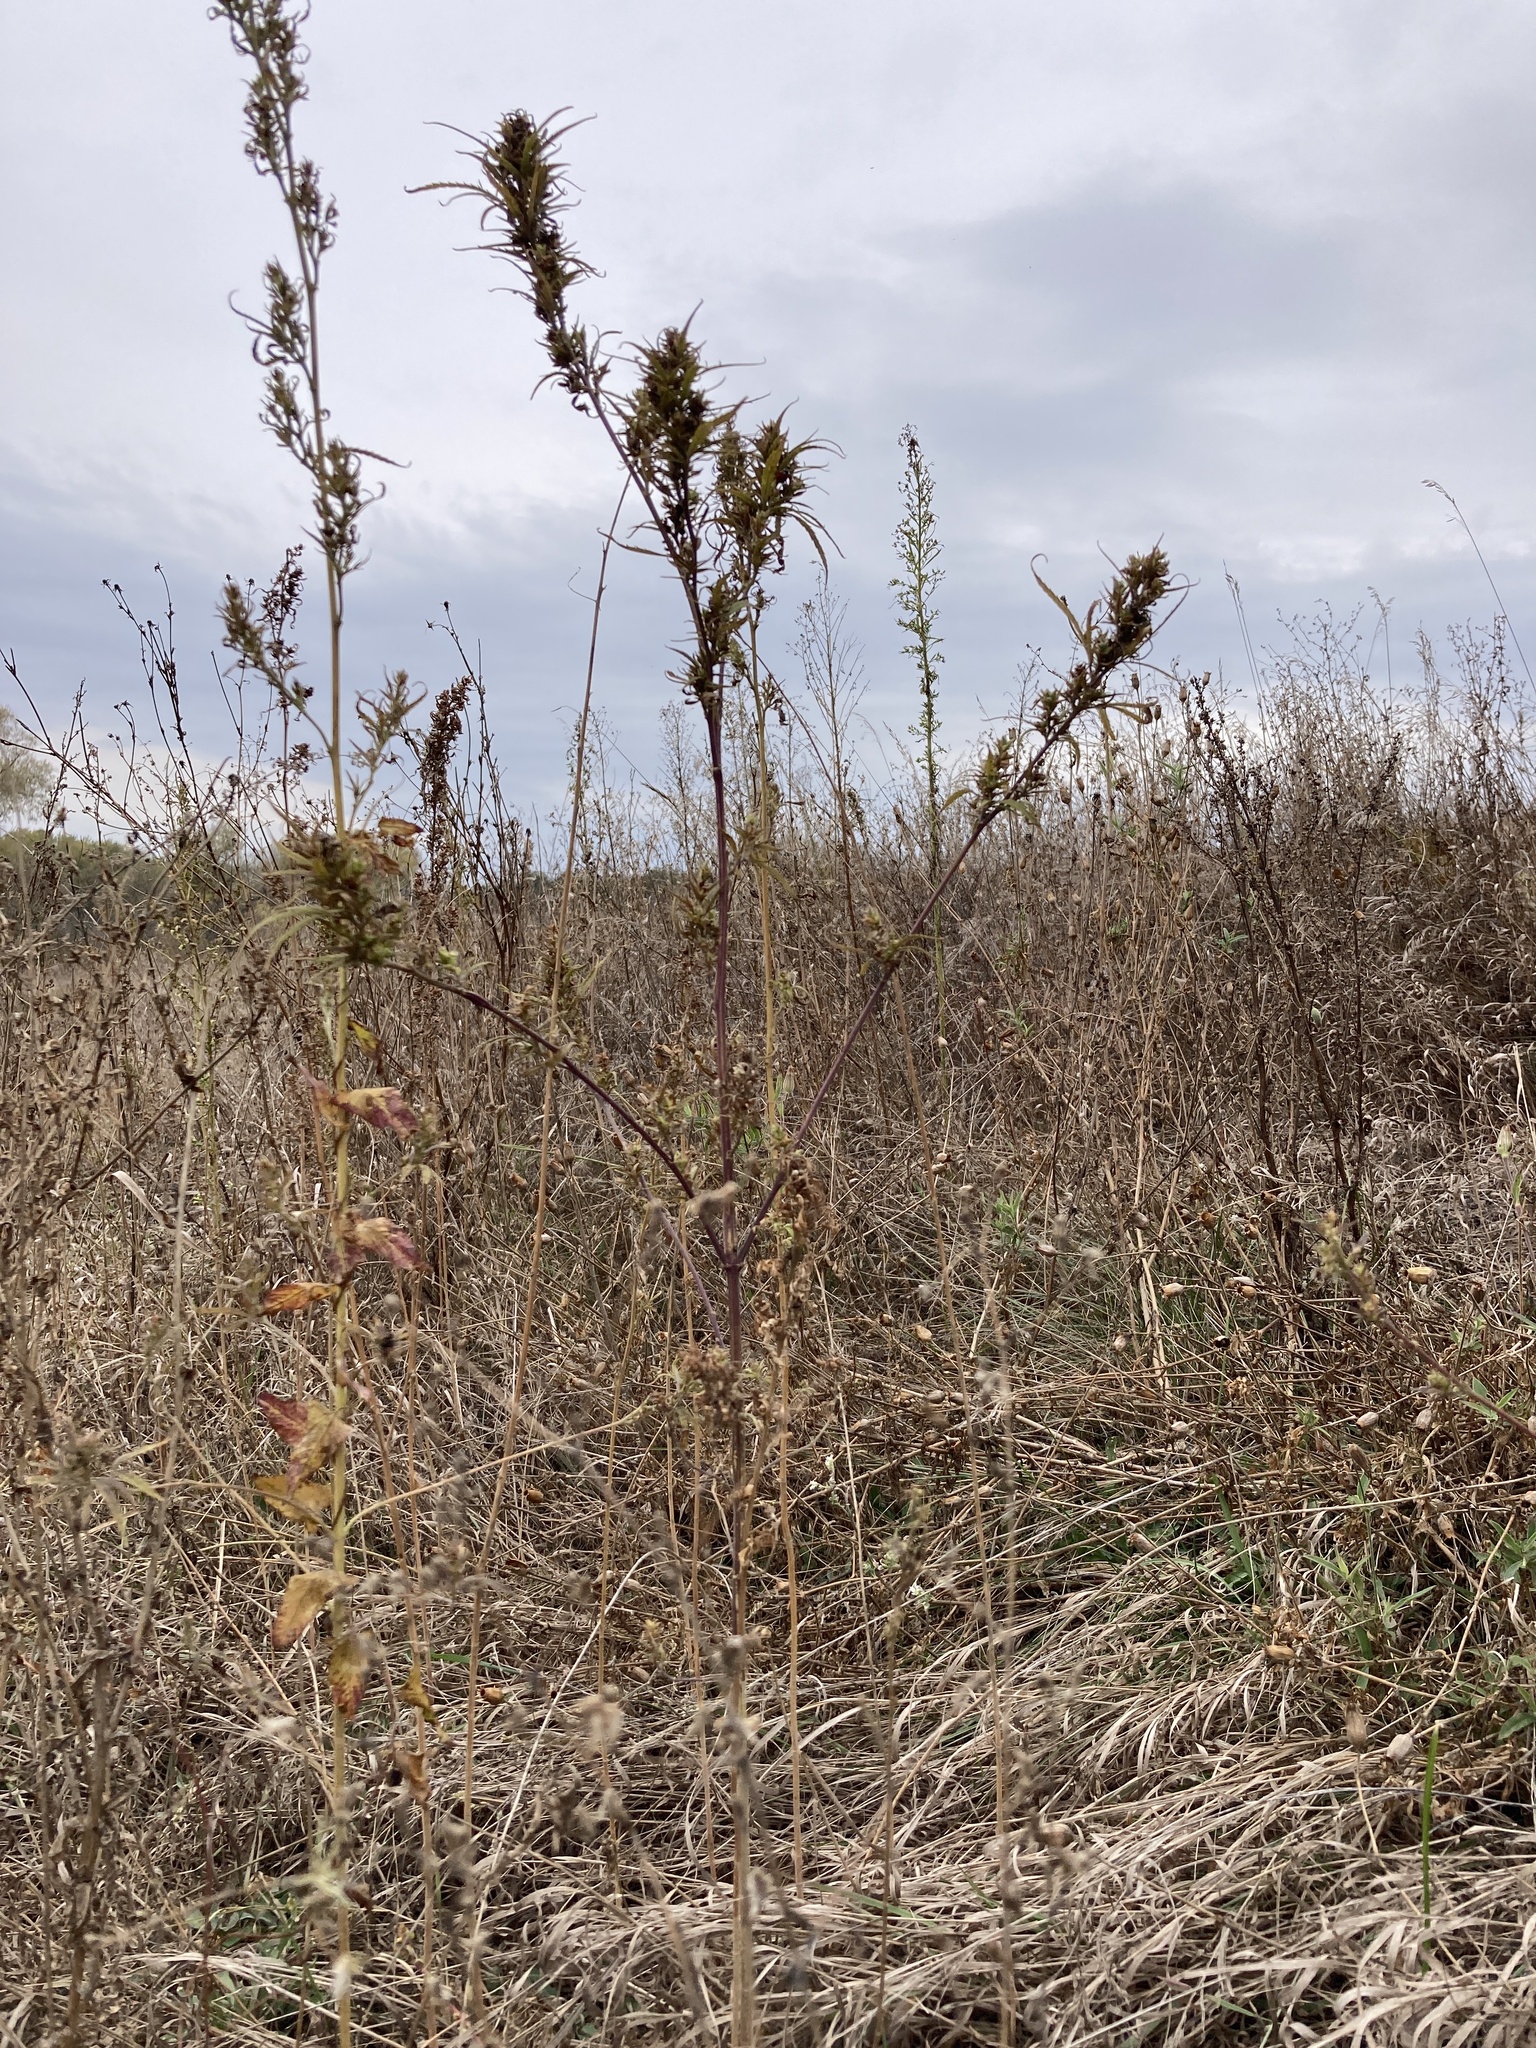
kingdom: Plantae
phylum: Tracheophyta
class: Magnoliopsida
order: Rosales
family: Cannabaceae
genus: Cannabis
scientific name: Cannabis sativa
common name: Hemp
